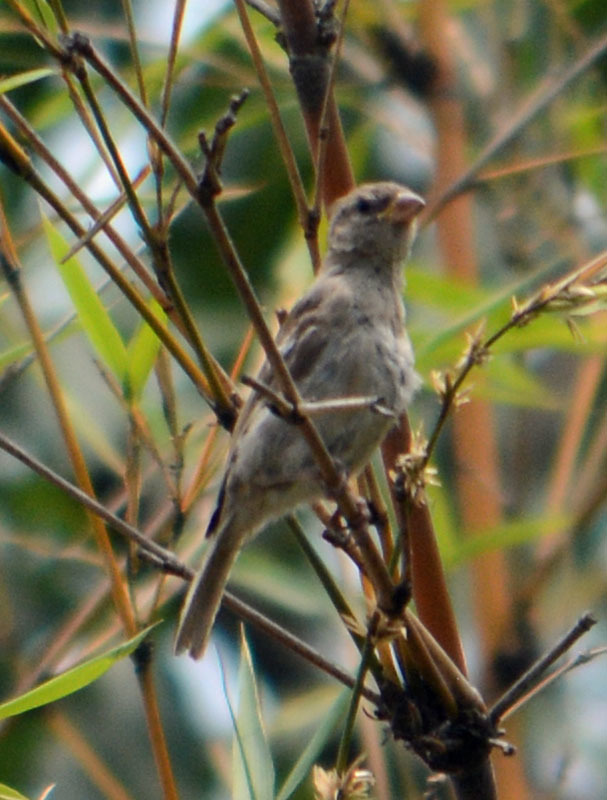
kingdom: Animalia
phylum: Chordata
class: Aves
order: Passeriformes
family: Passeridae
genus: Passer
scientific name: Passer domesticus
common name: House sparrow
